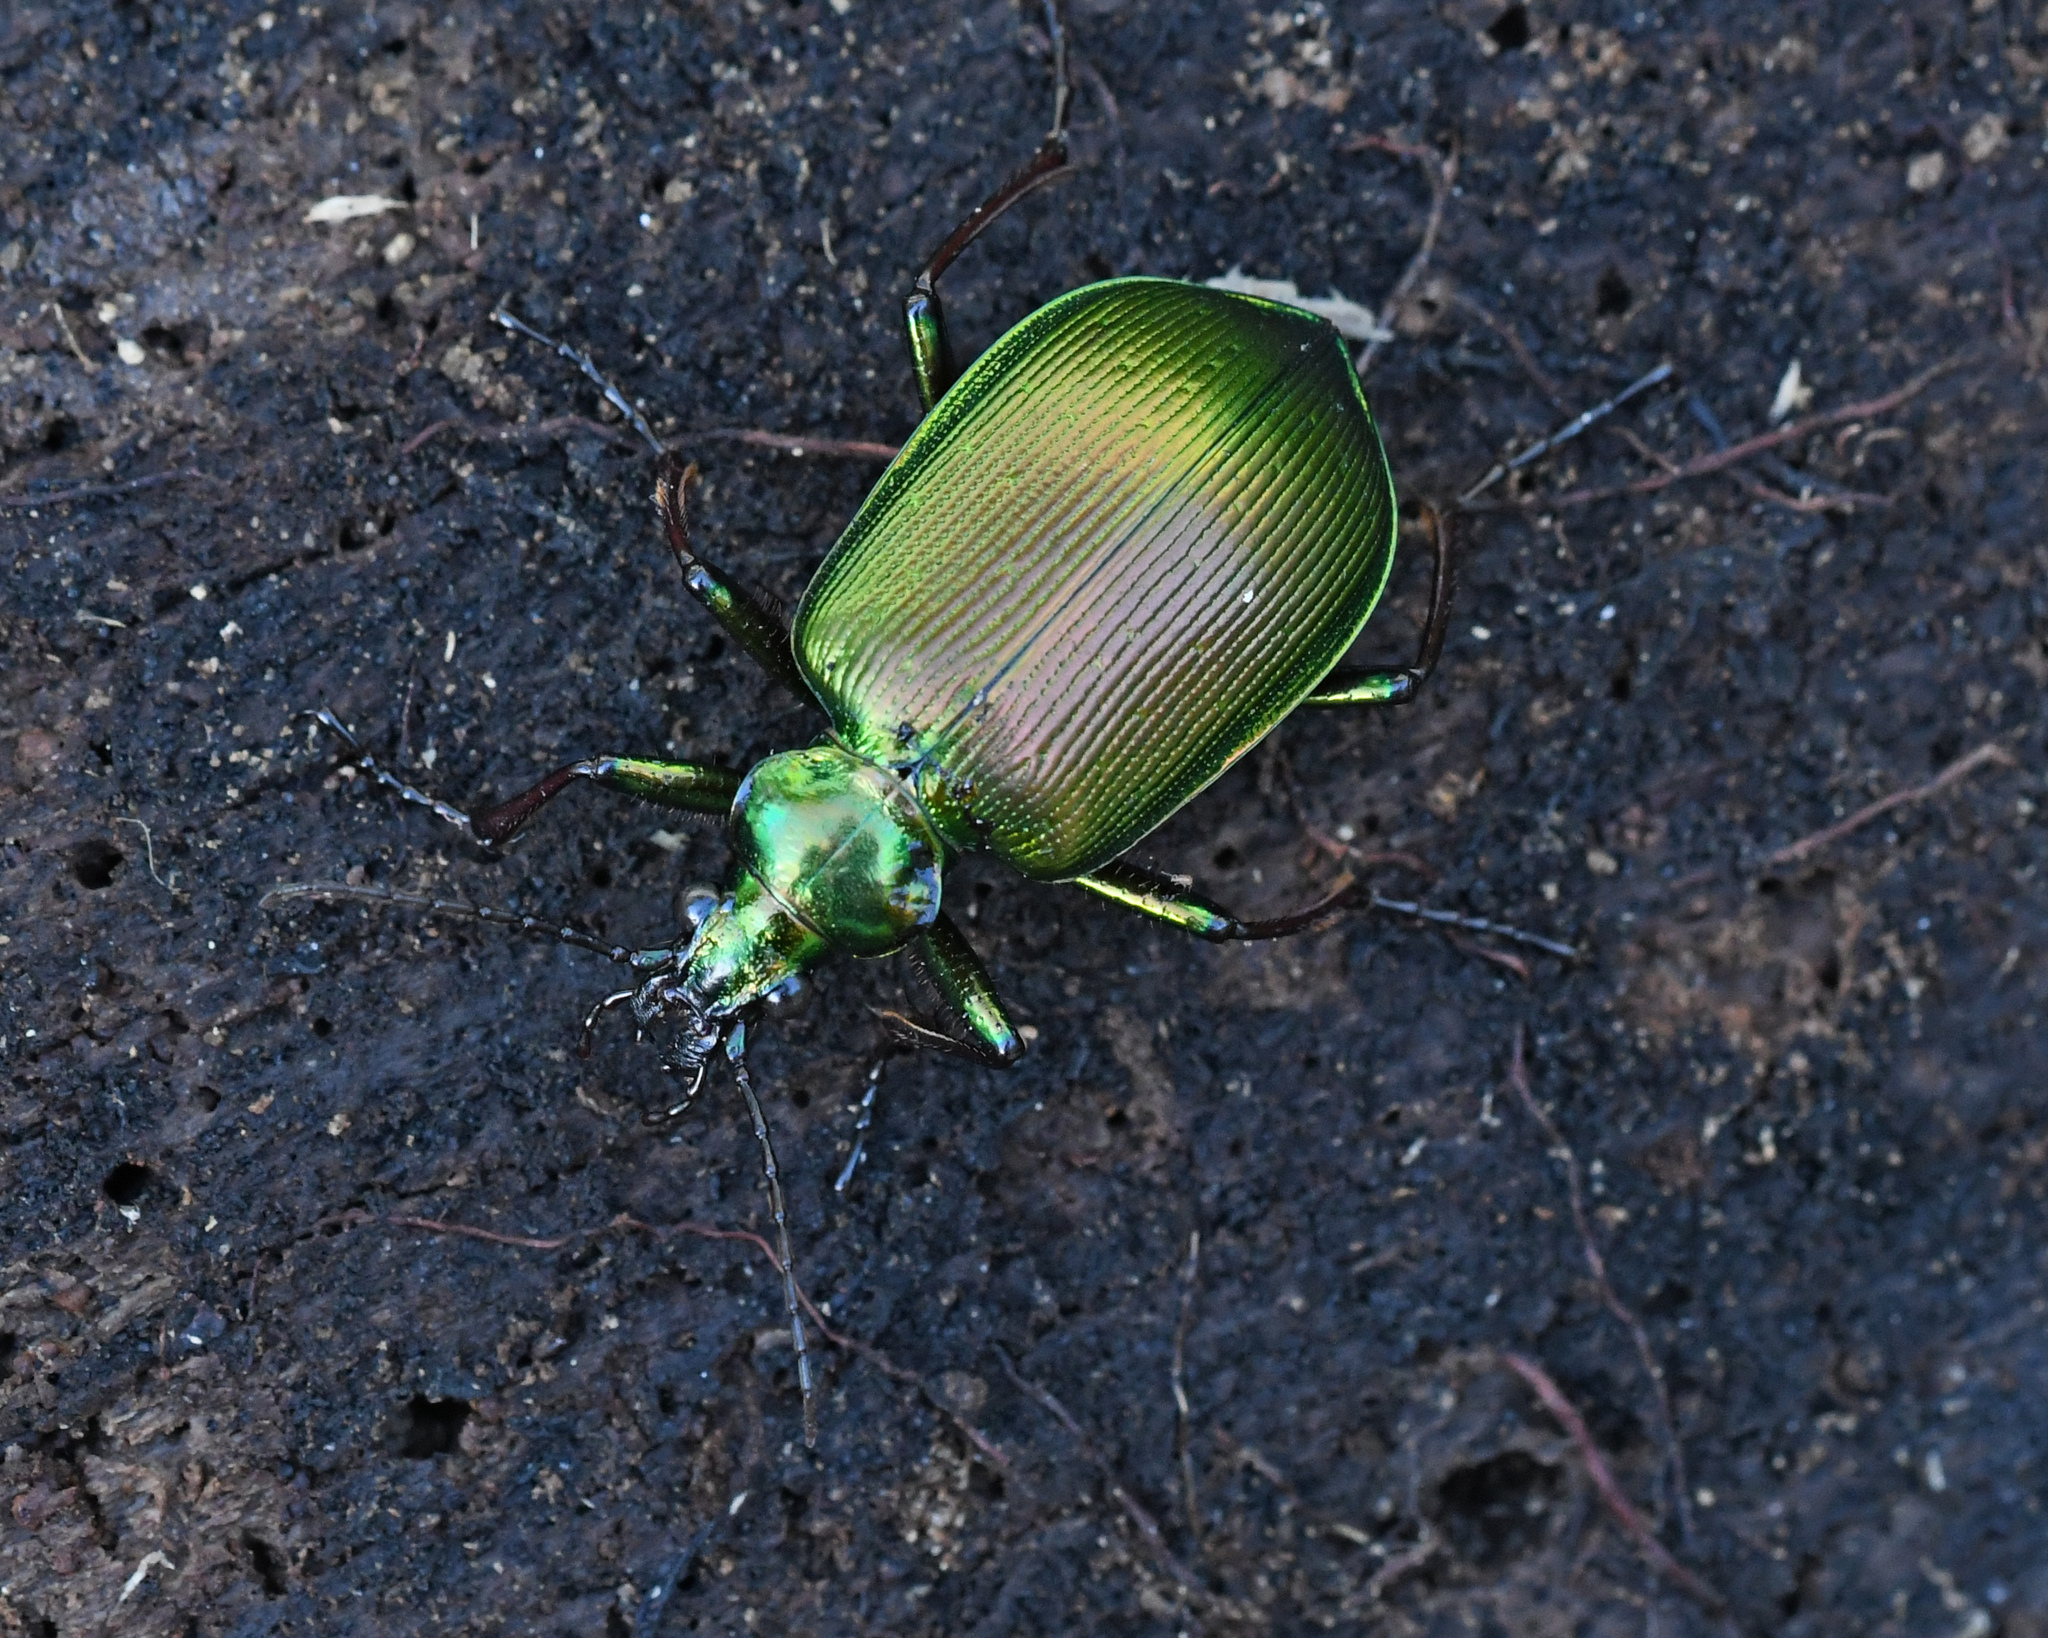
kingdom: Animalia
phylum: Arthropoda
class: Insecta
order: Coleoptera
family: Carabidae
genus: Calosoma
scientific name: Calosoma splendidum
